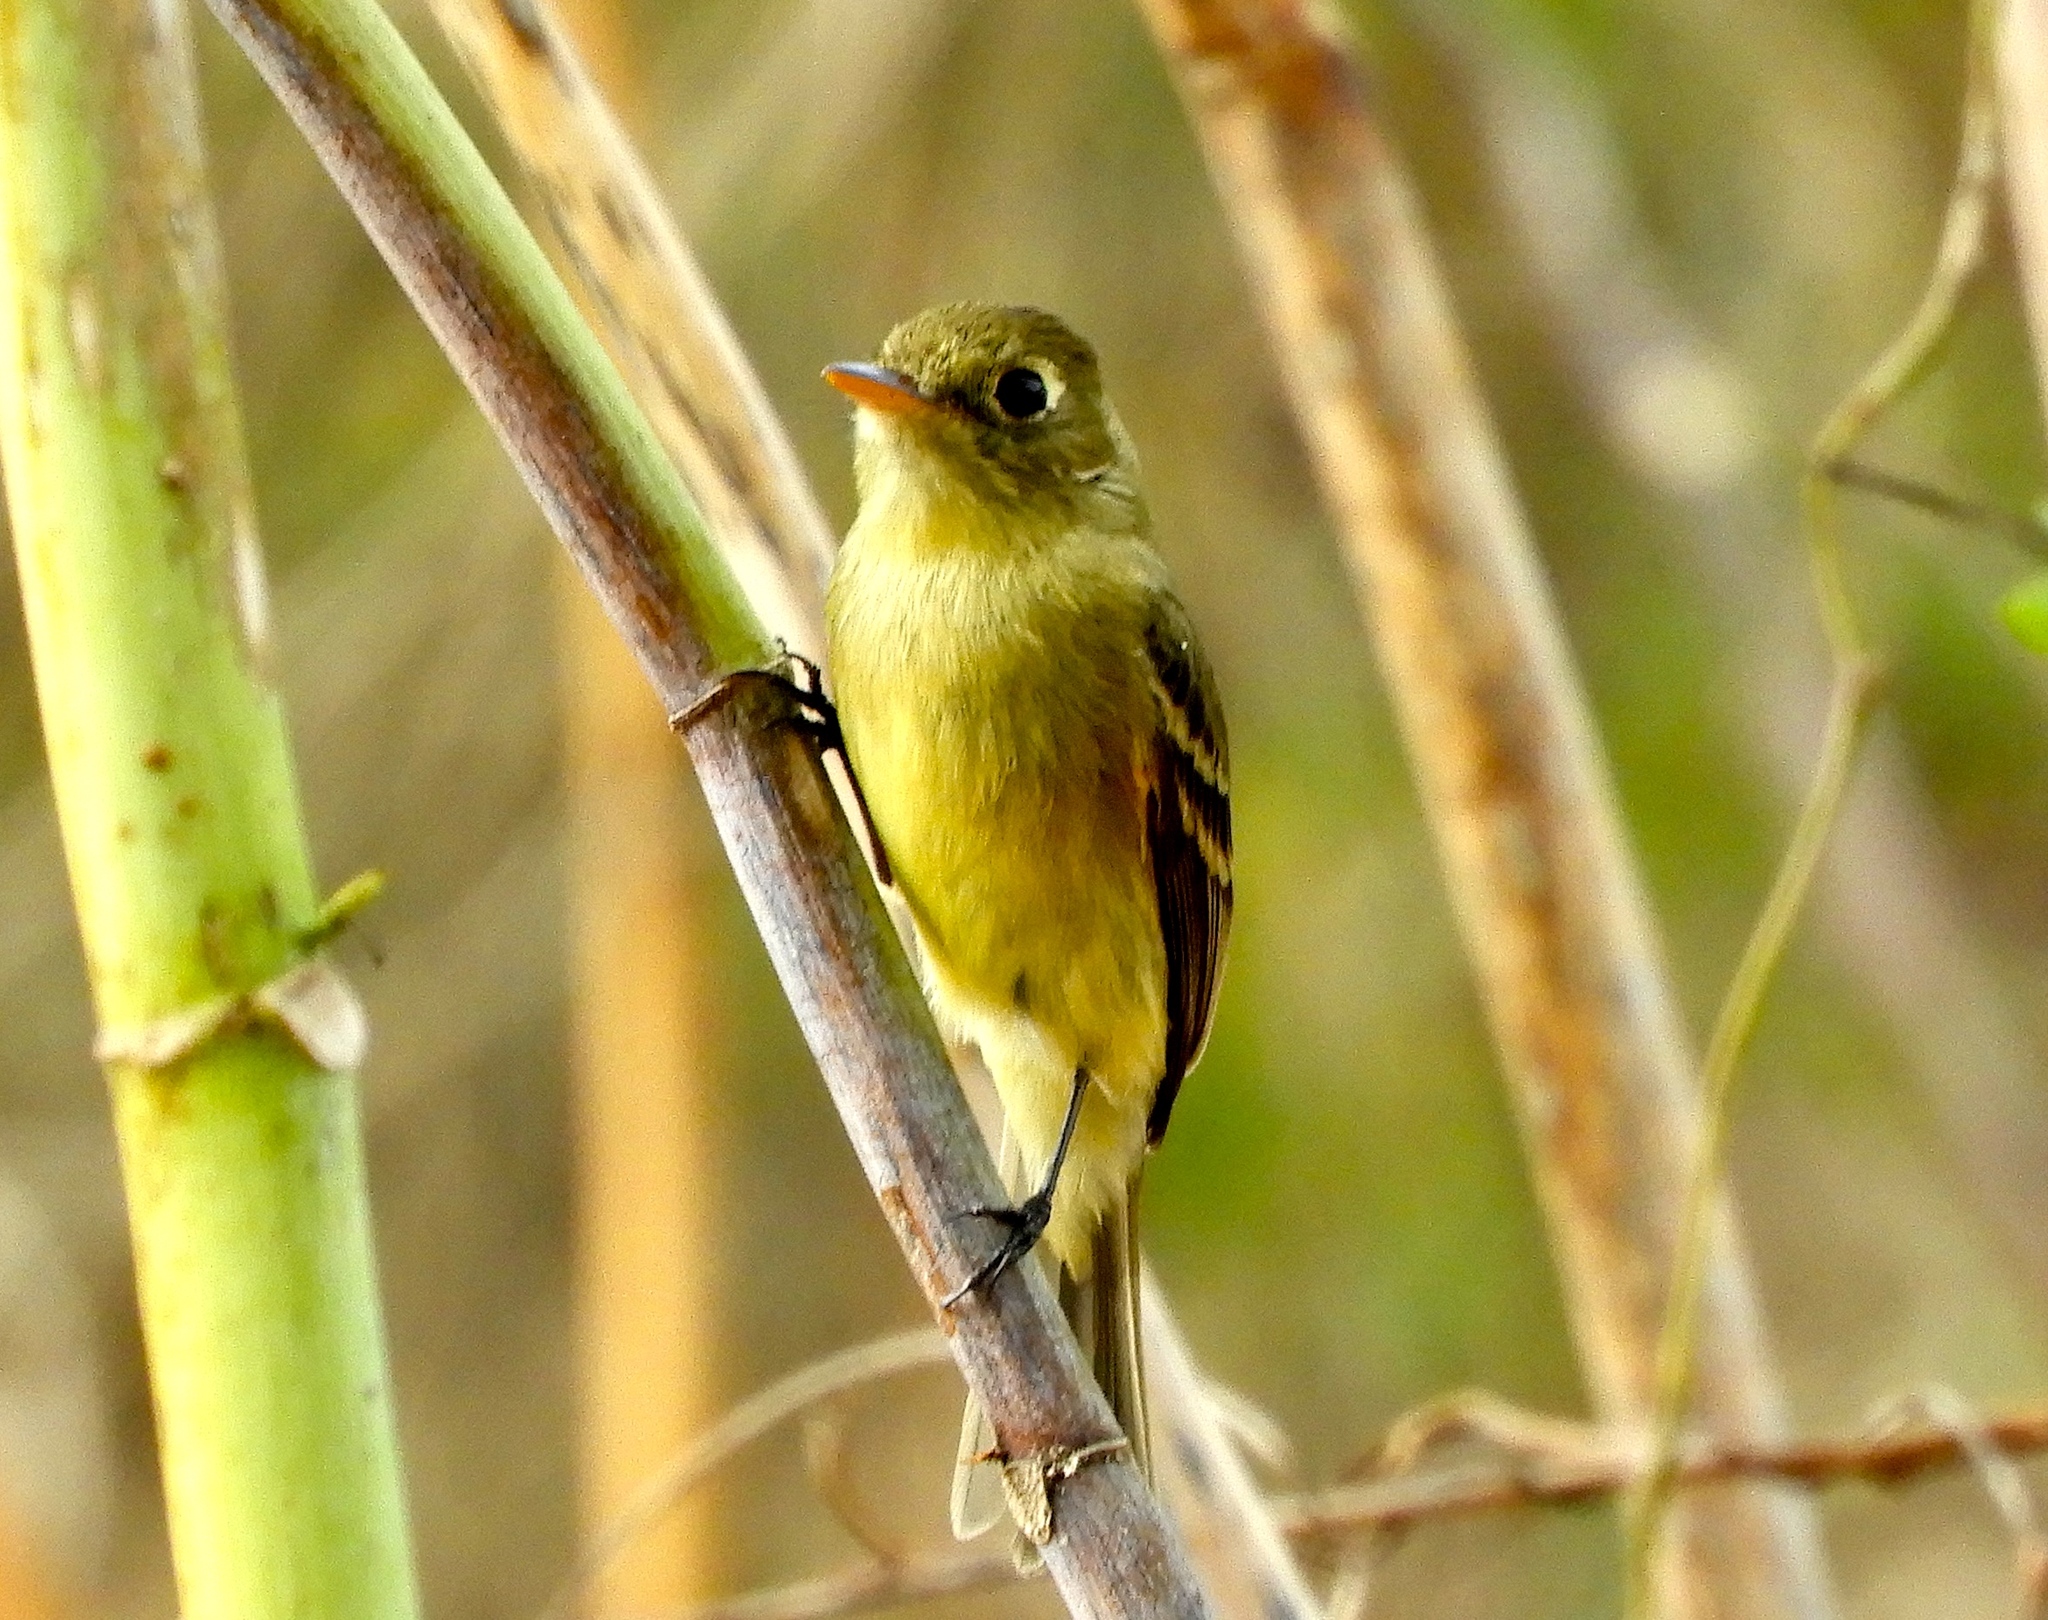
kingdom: Animalia
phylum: Chordata
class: Aves
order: Passeriformes
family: Tyrannidae
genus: Empidonax
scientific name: Empidonax difficilis
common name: Pacific-slope flycatcher
